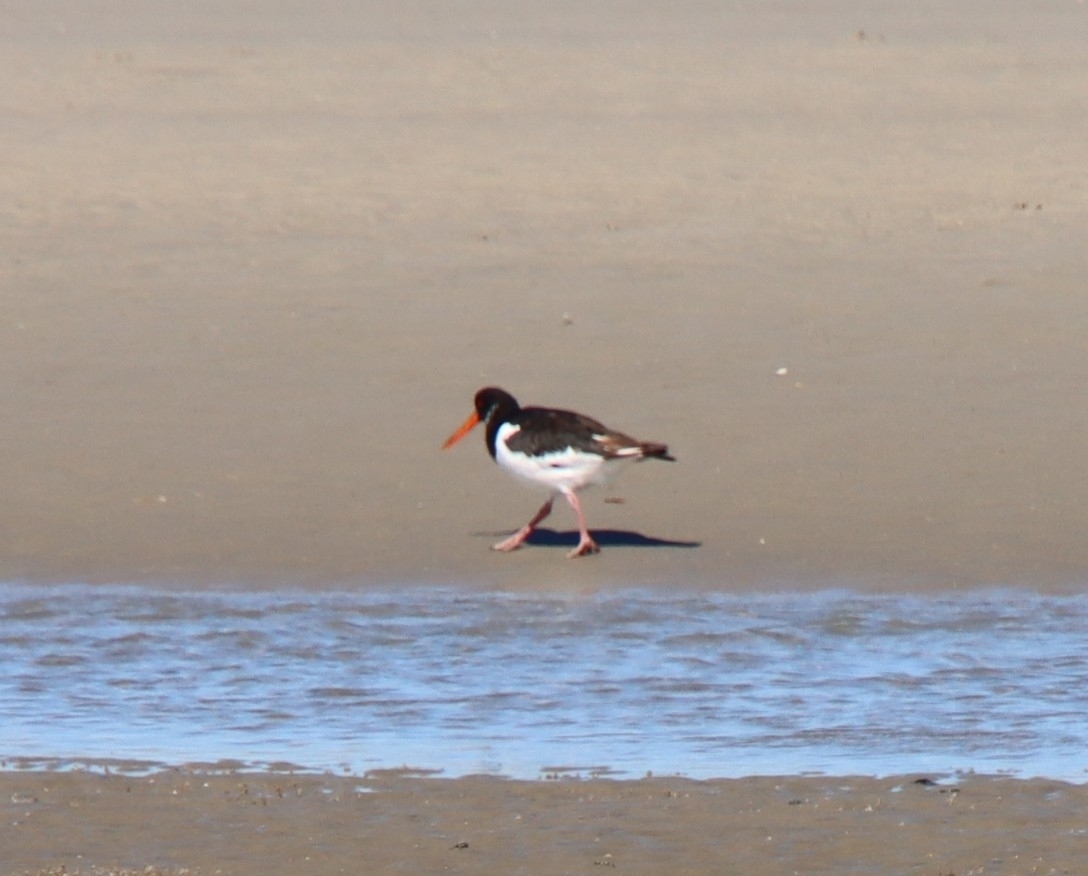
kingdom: Animalia
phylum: Chordata
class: Aves
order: Charadriiformes
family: Haematopodidae
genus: Haematopus
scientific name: Haematopus ostralegus
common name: Eurasian oystercatcher
